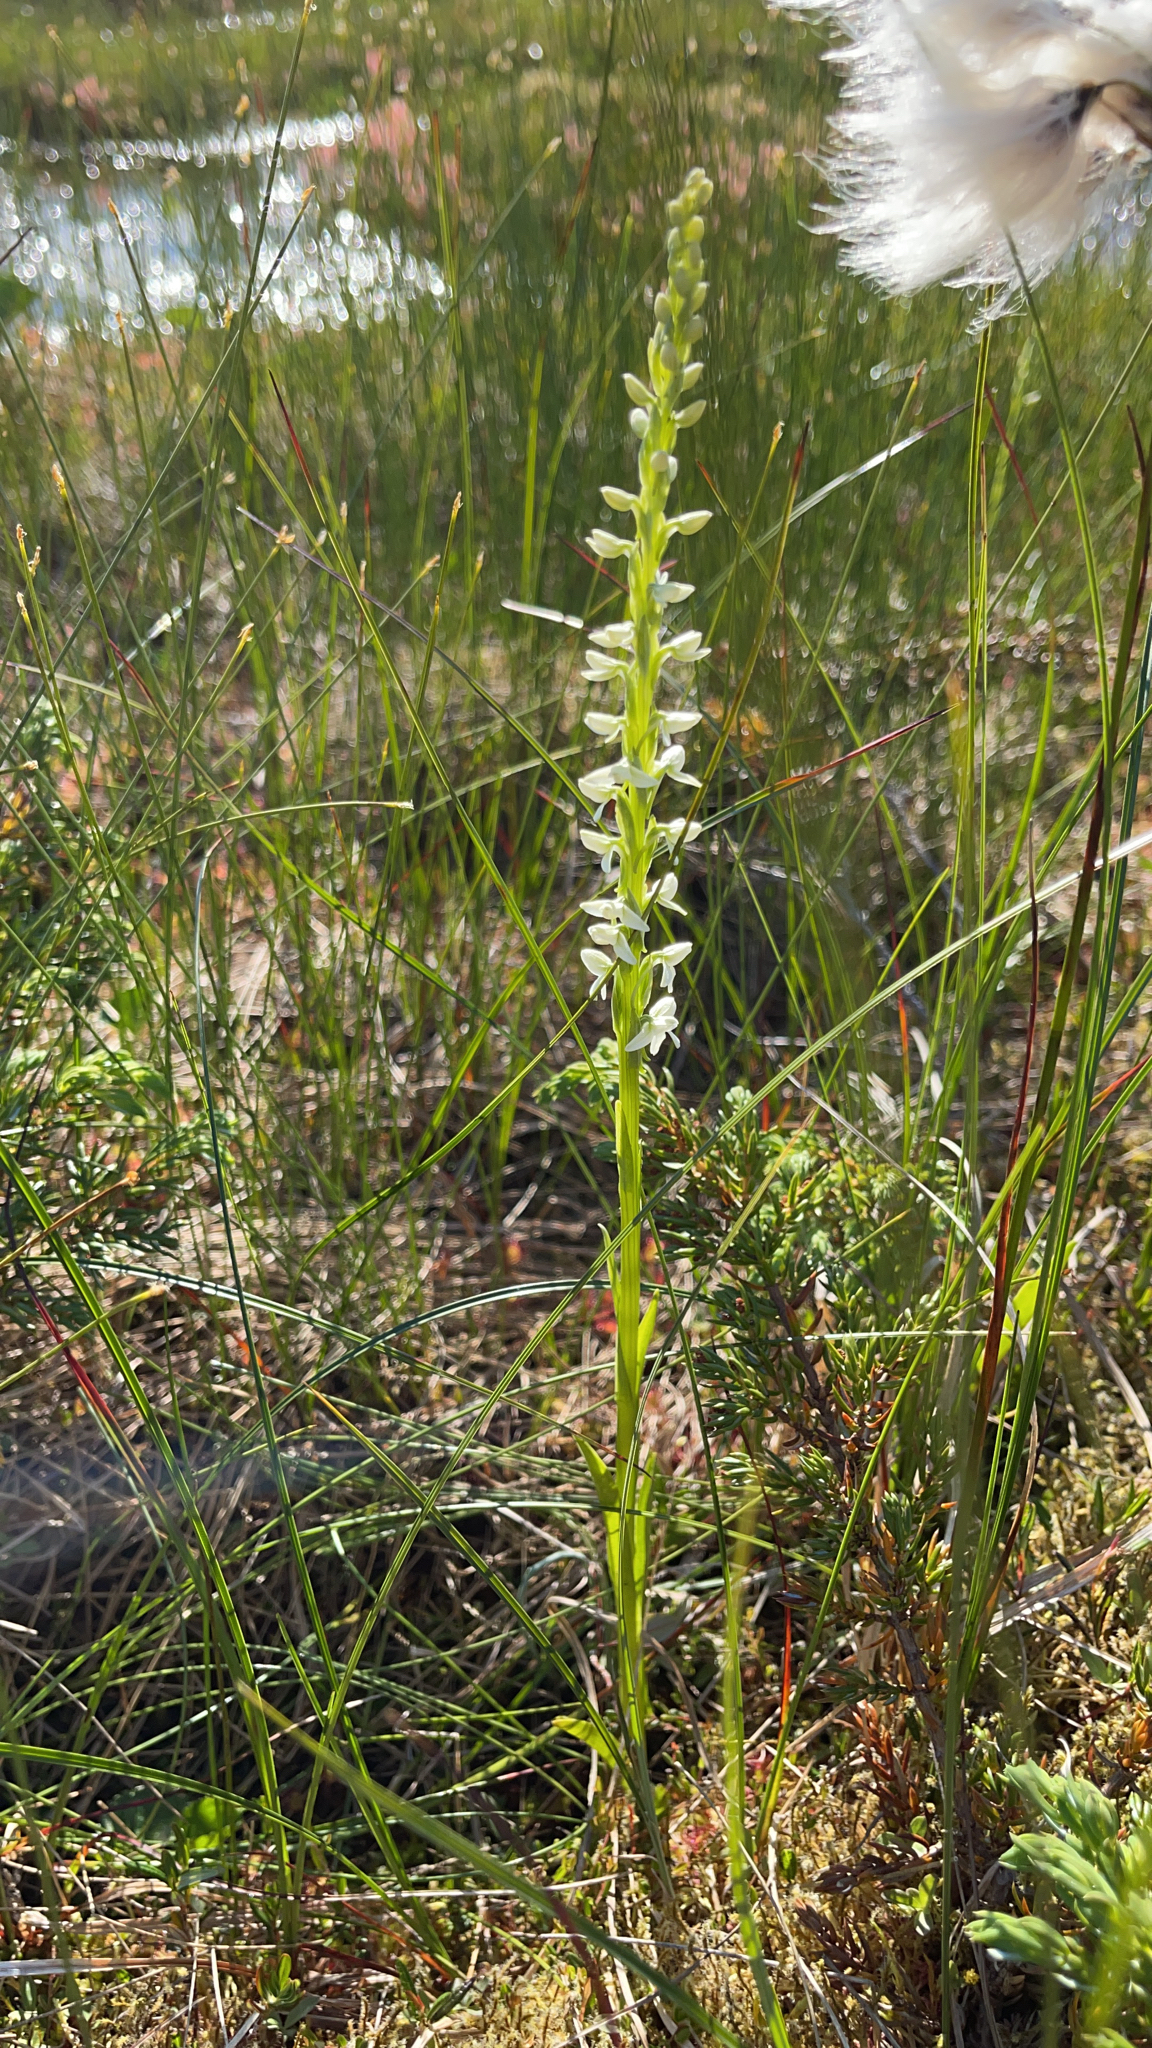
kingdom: Plantae
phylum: Tracheophyta
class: Liliopsida
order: Asparagales
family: Orchidaceae
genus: Platanthera
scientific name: Platanthera dilatata
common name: Bog candles
